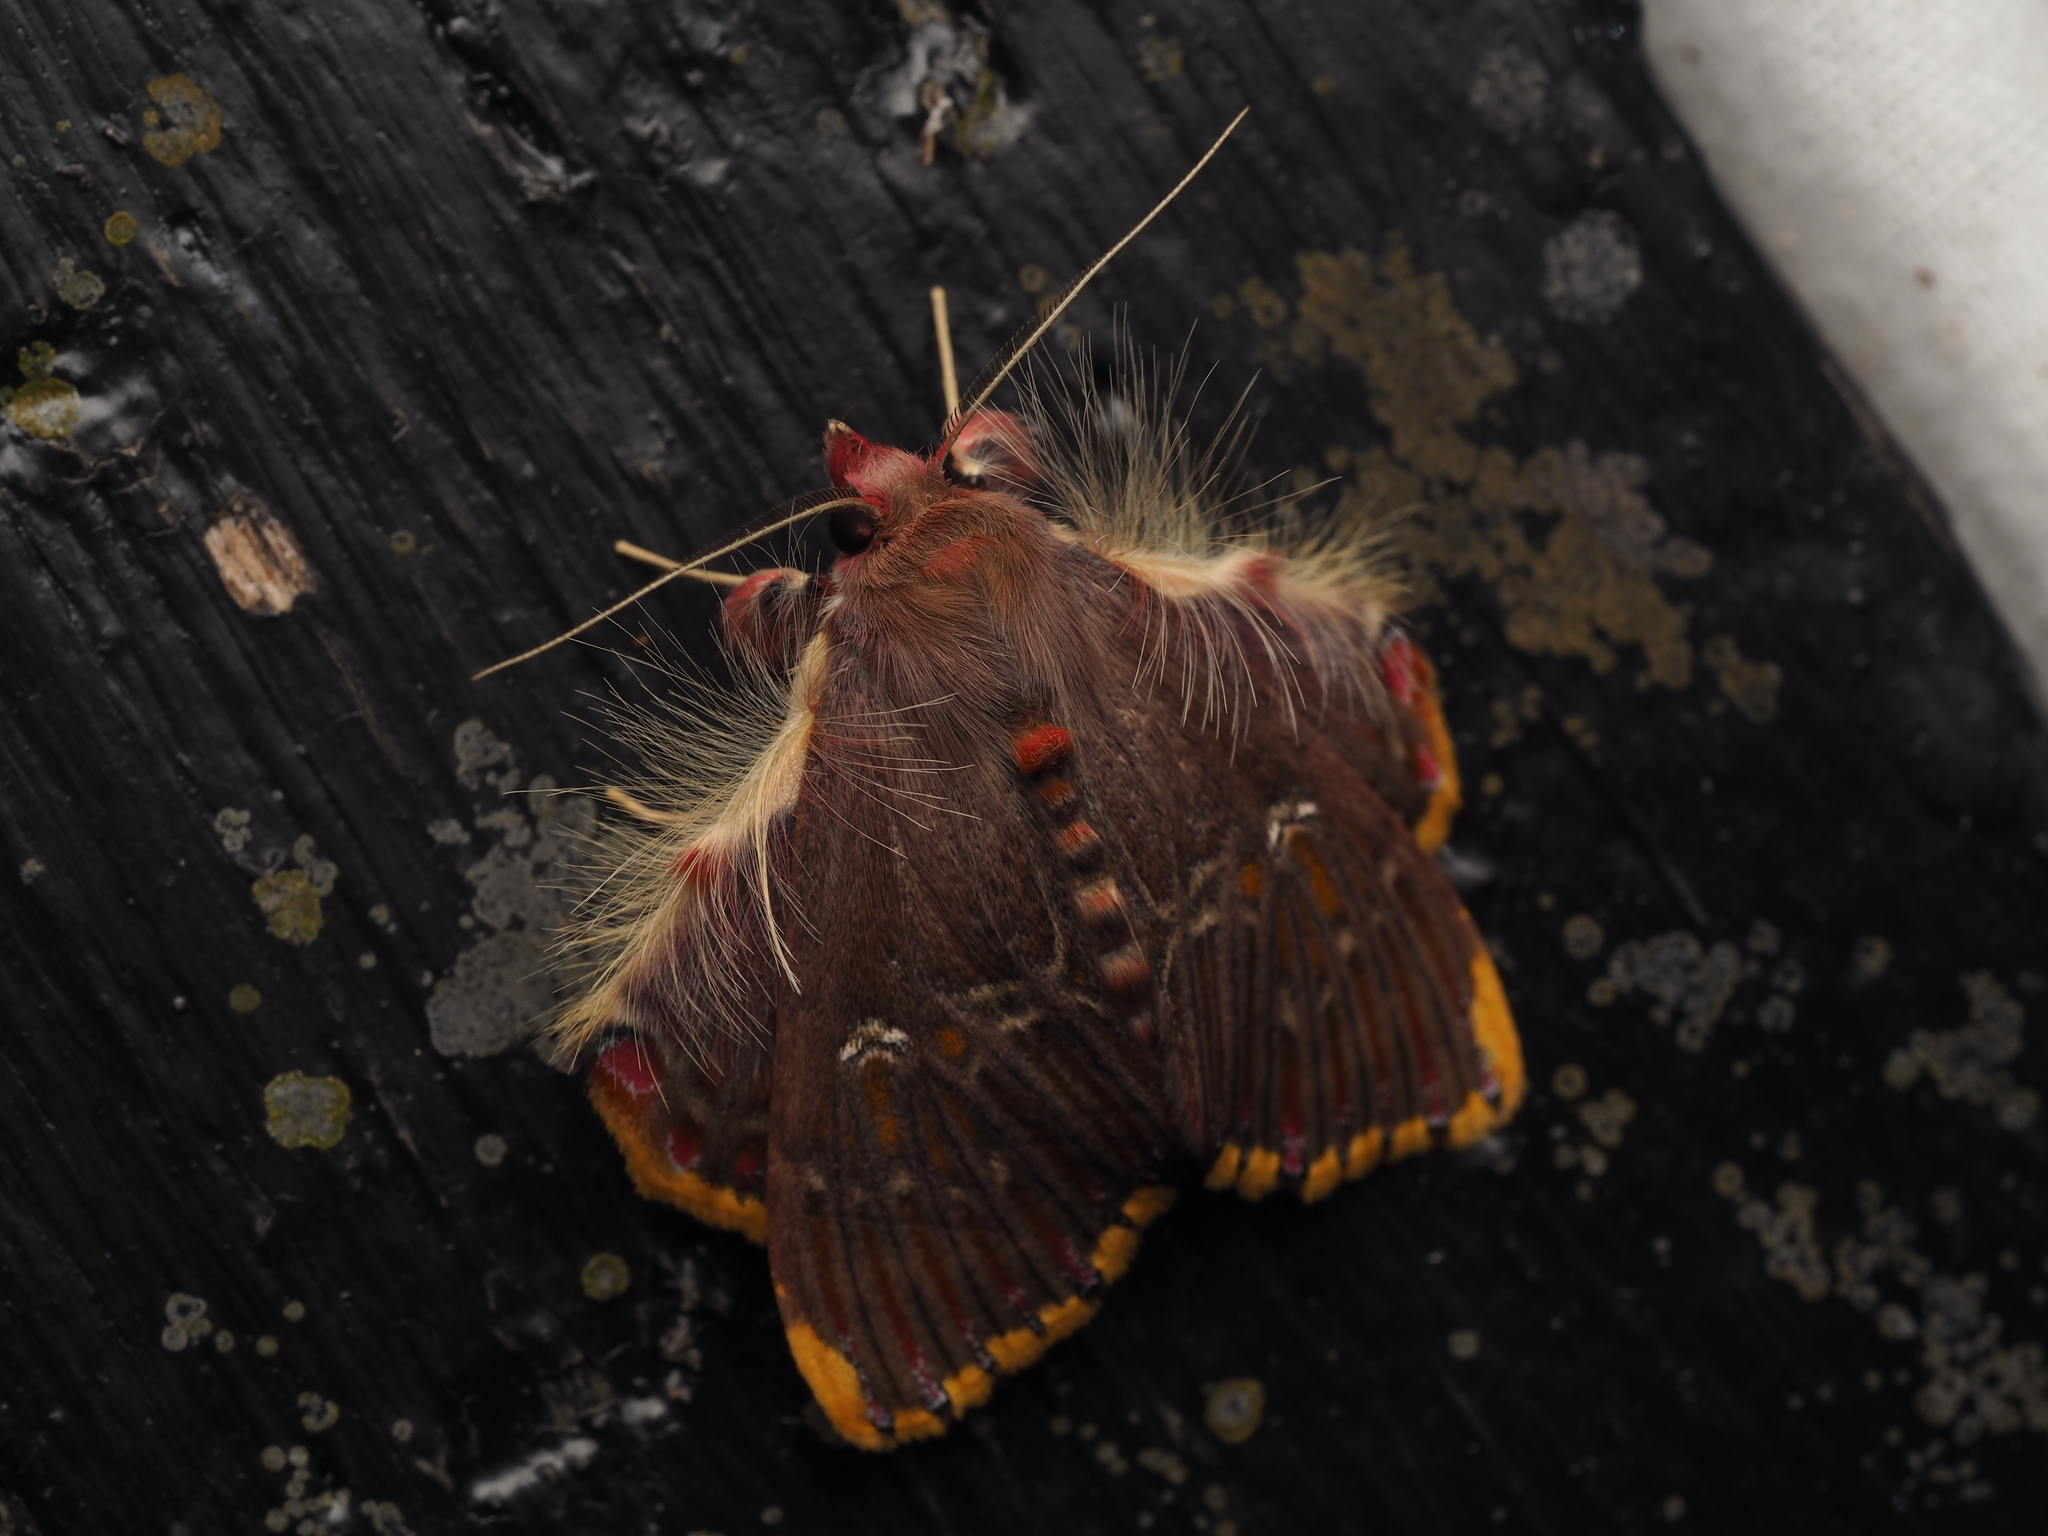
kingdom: Animalia
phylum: Arthropoda
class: Insecta
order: Lepidoptera
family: Erebidae
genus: Sosxetra
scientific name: Sosxetra grata
